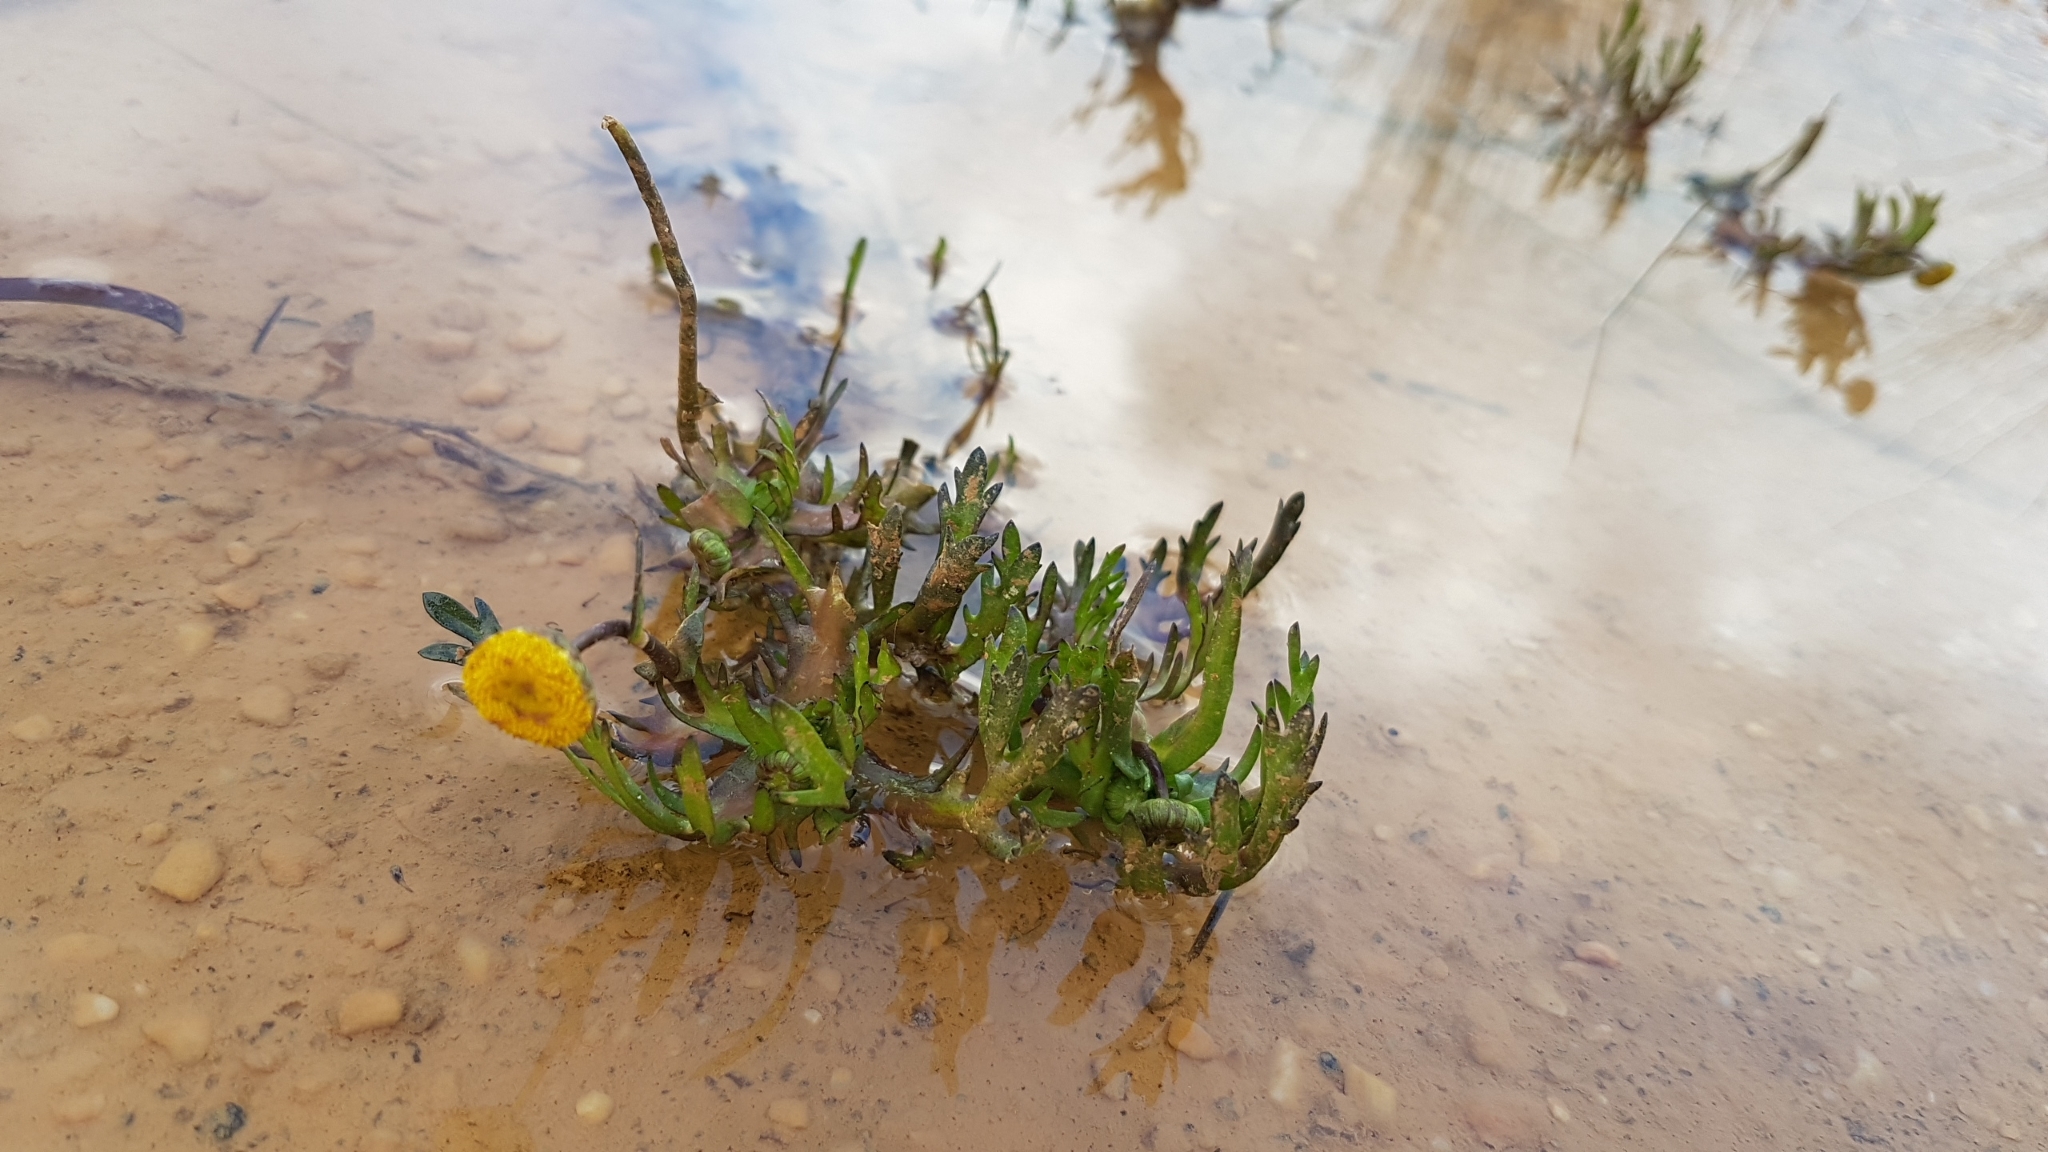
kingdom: Plantae
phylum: Tracheophyta
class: Magnoliopsida
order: Asterales
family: Asteraceae
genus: Cotula
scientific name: Cotula coronopifolia
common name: Buttonweed
